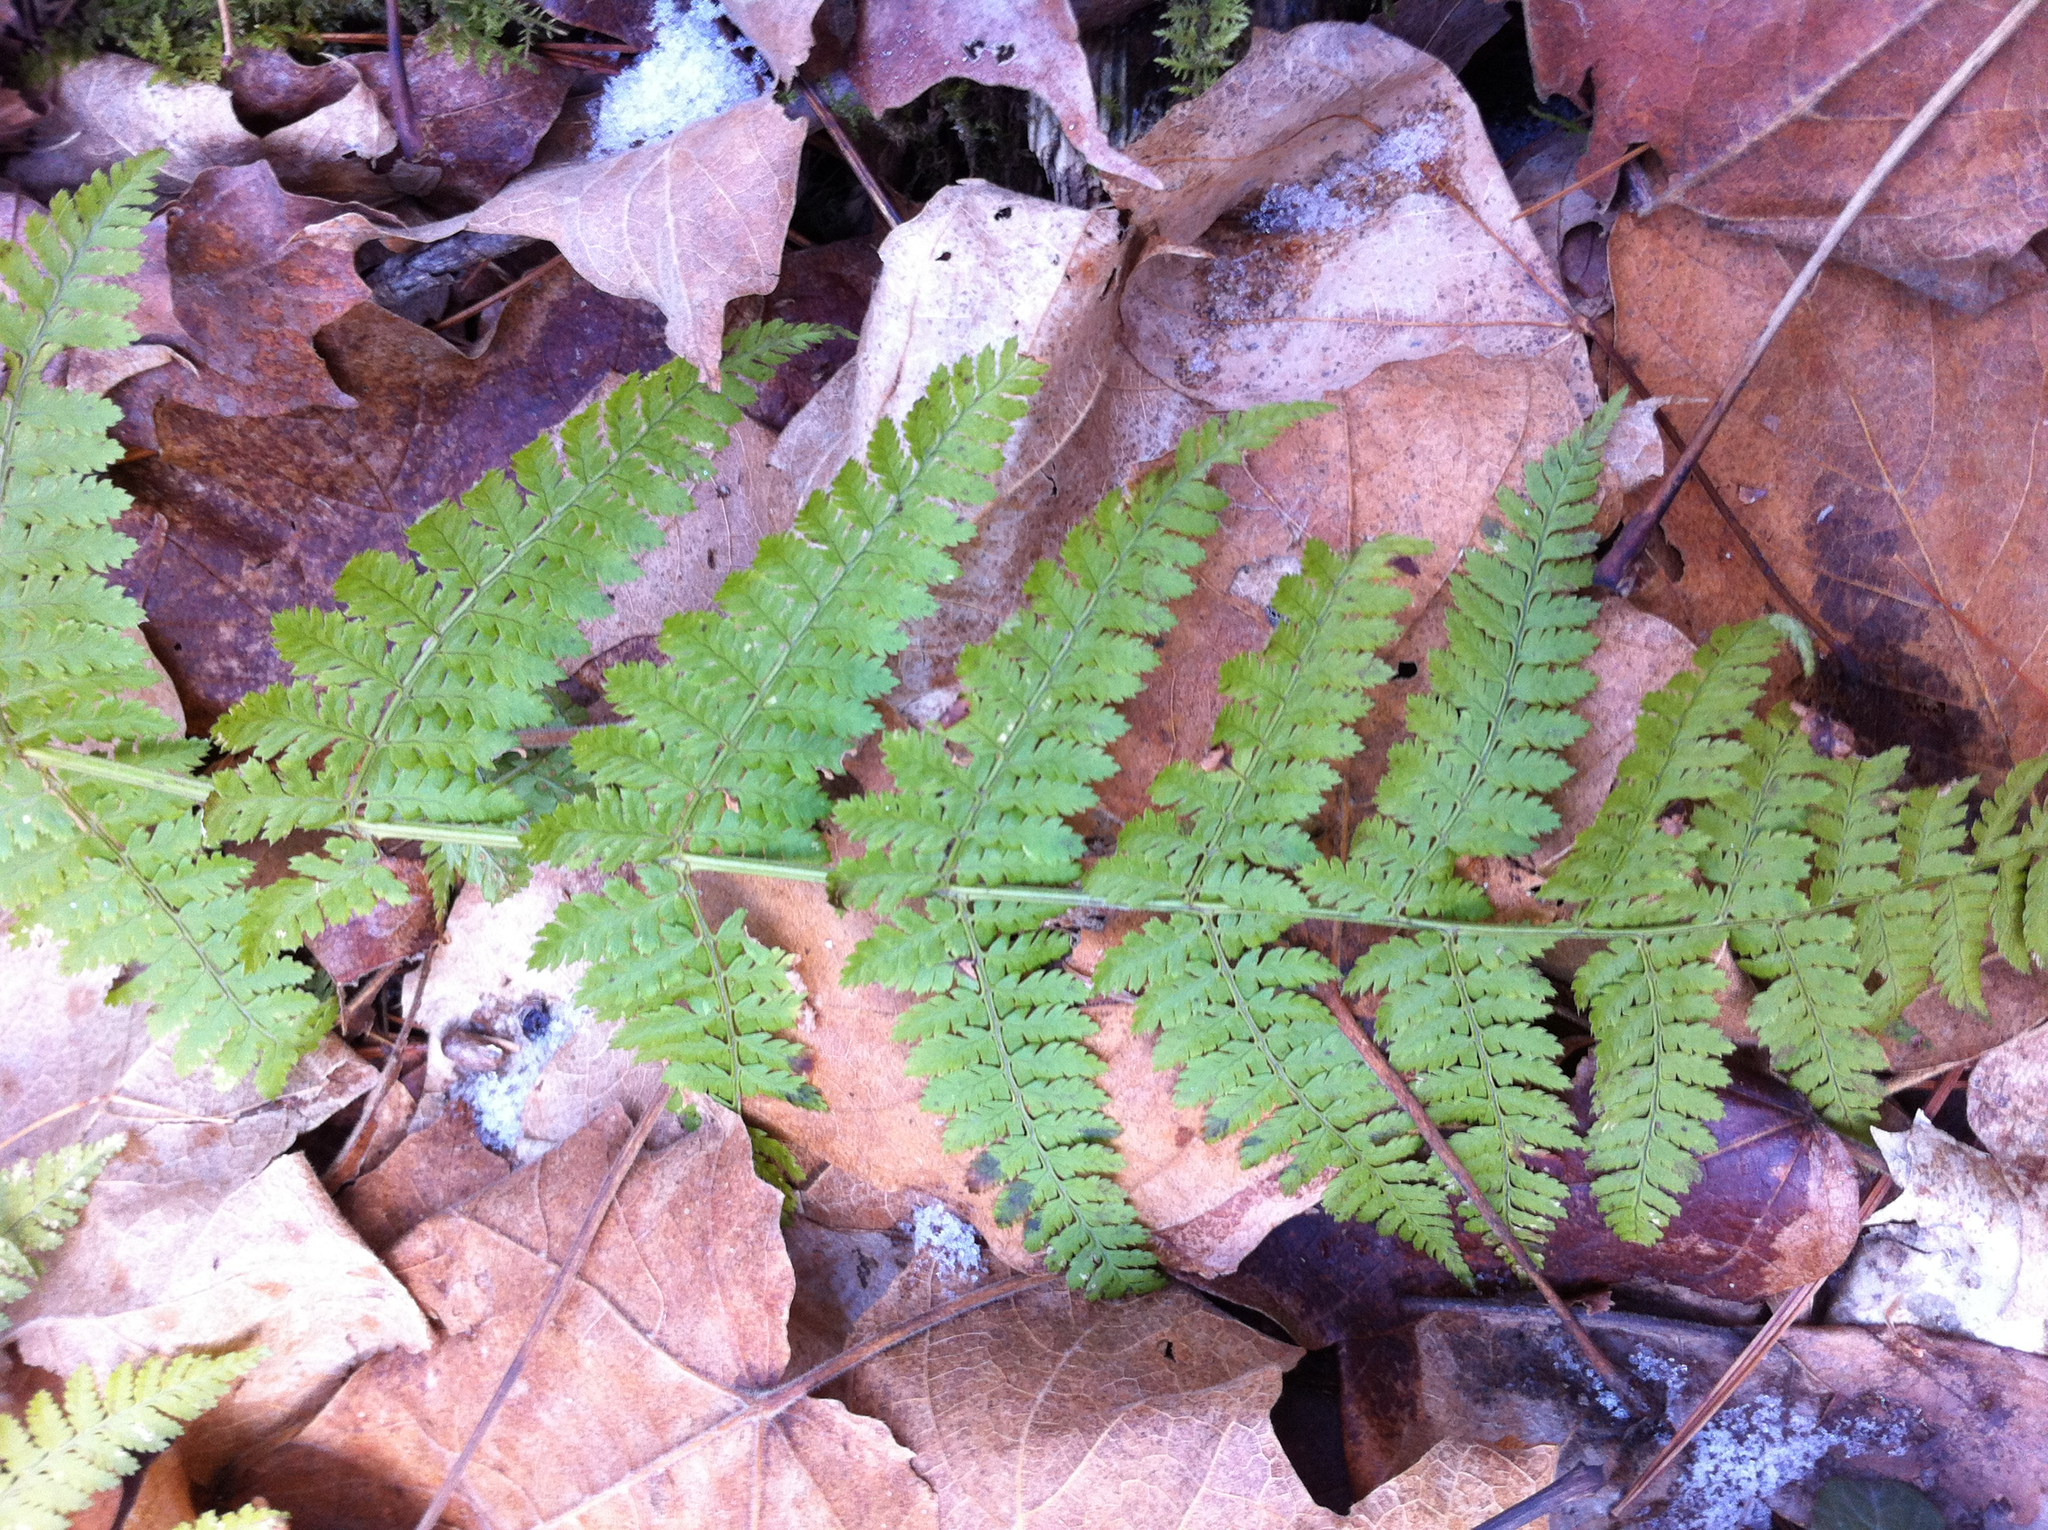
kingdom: Plantae
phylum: Tracheophyta
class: Polypodiopsida
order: Polypodiales
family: Dryopteridaceae
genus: Dryopteris
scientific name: Dryopteris intermedia
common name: Evergreen wood fern
